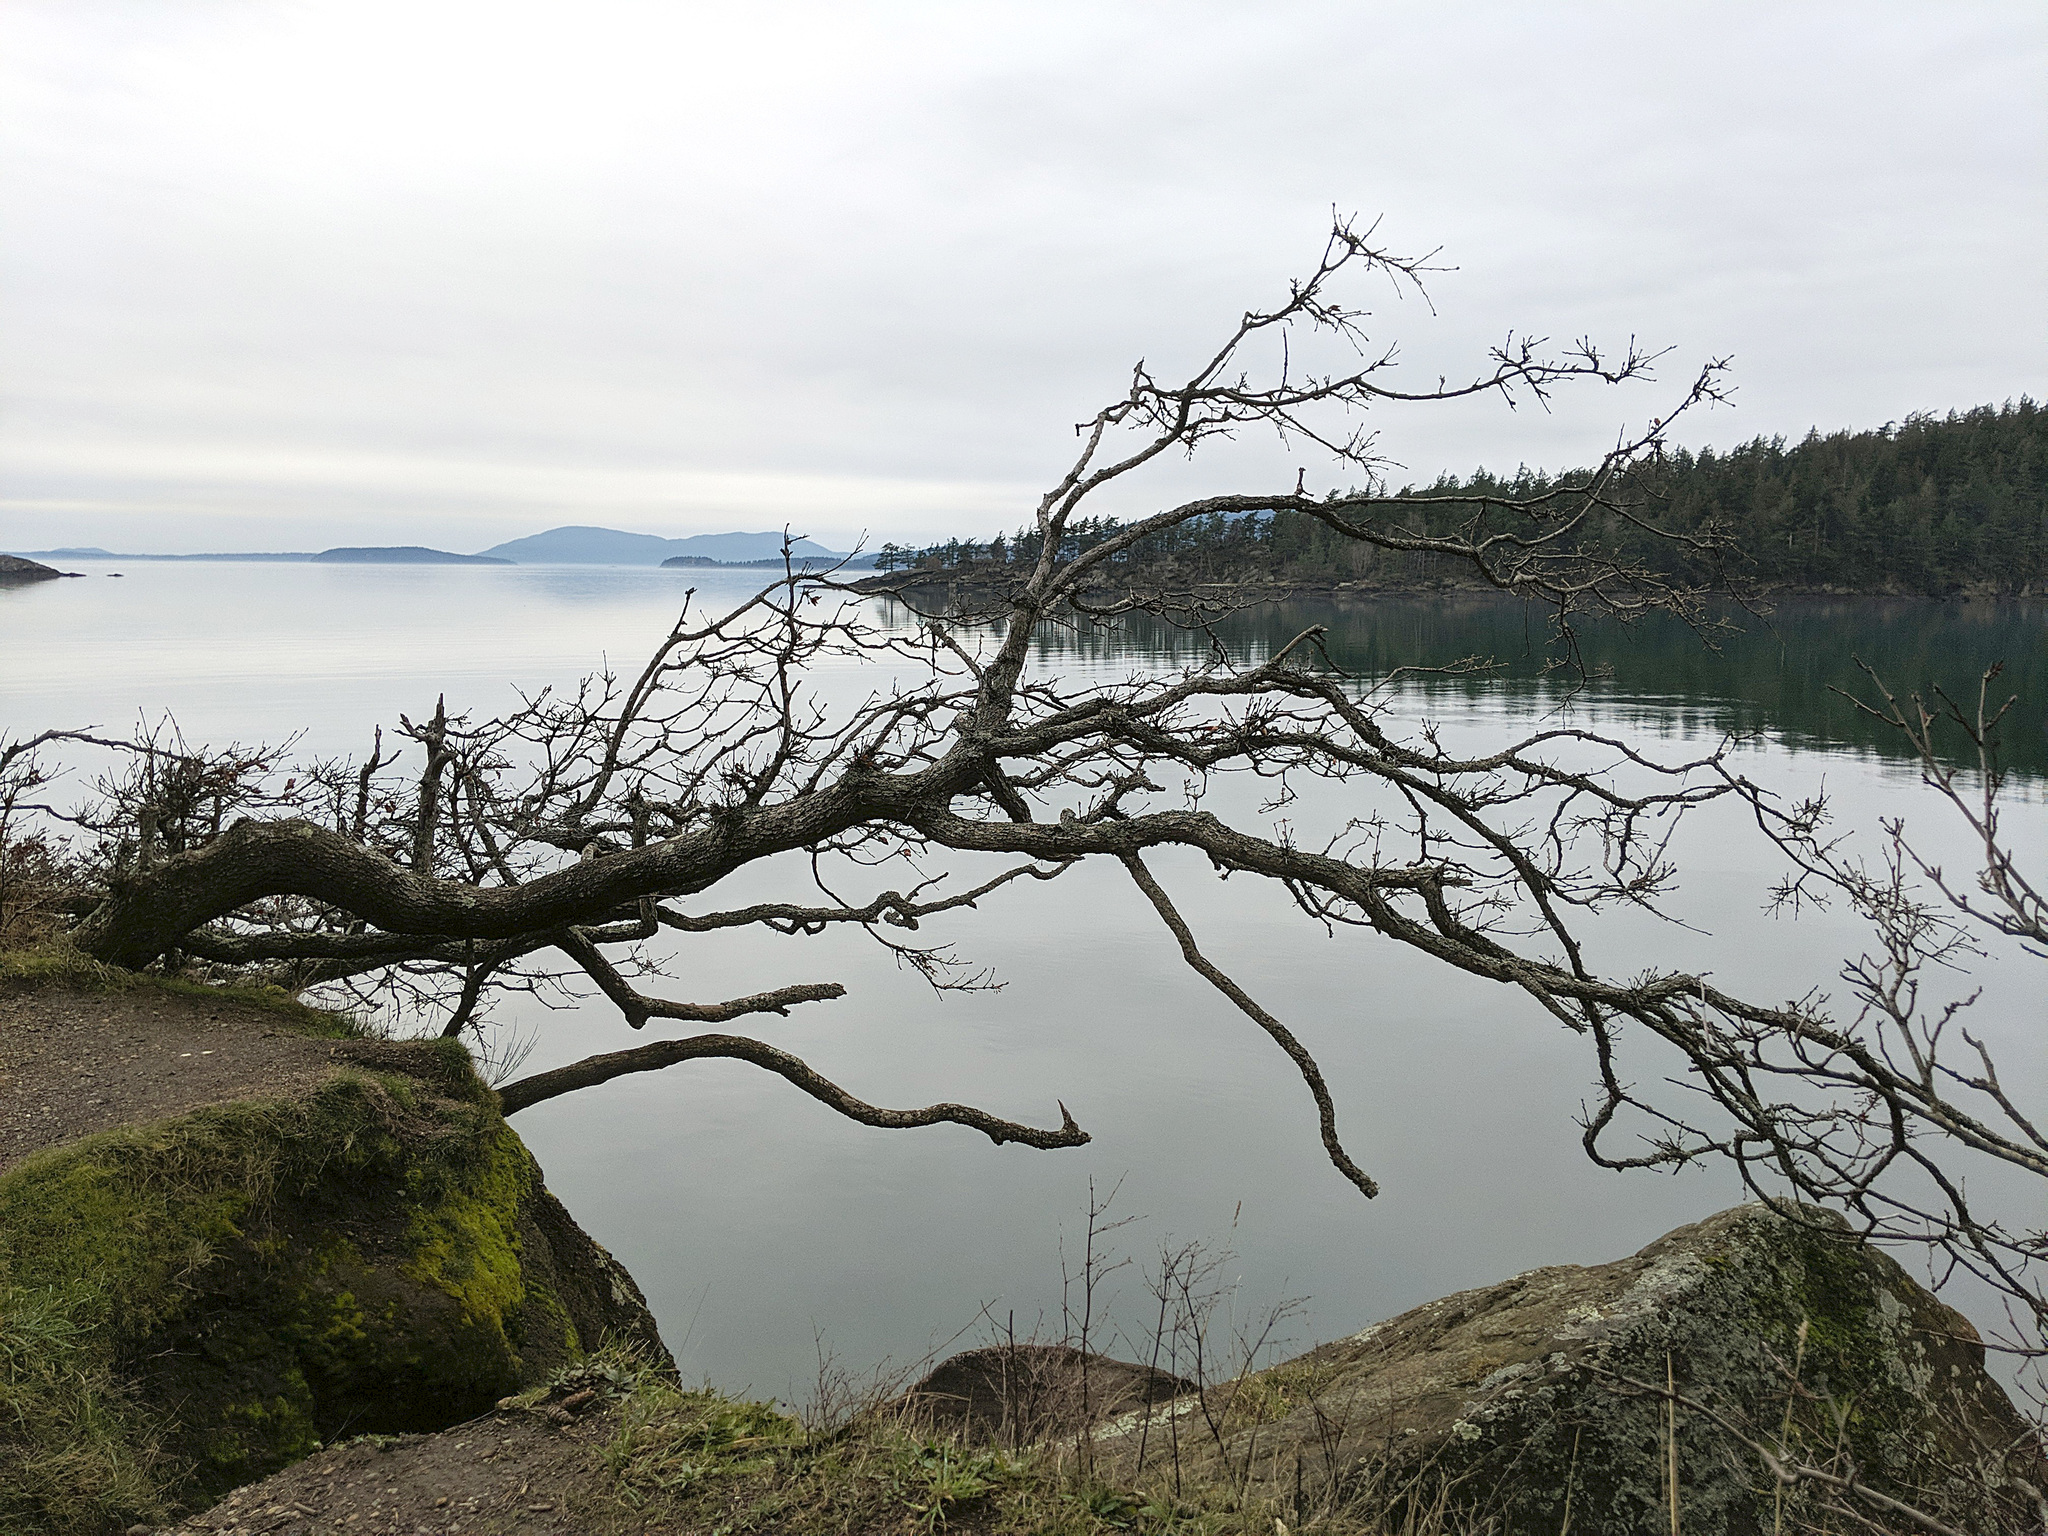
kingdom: Plantae
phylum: Tracheophyta
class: Magnoliopsida
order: Fagales
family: Fagaceae
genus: Quercus
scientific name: Quercus garryana
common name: Garry oak
